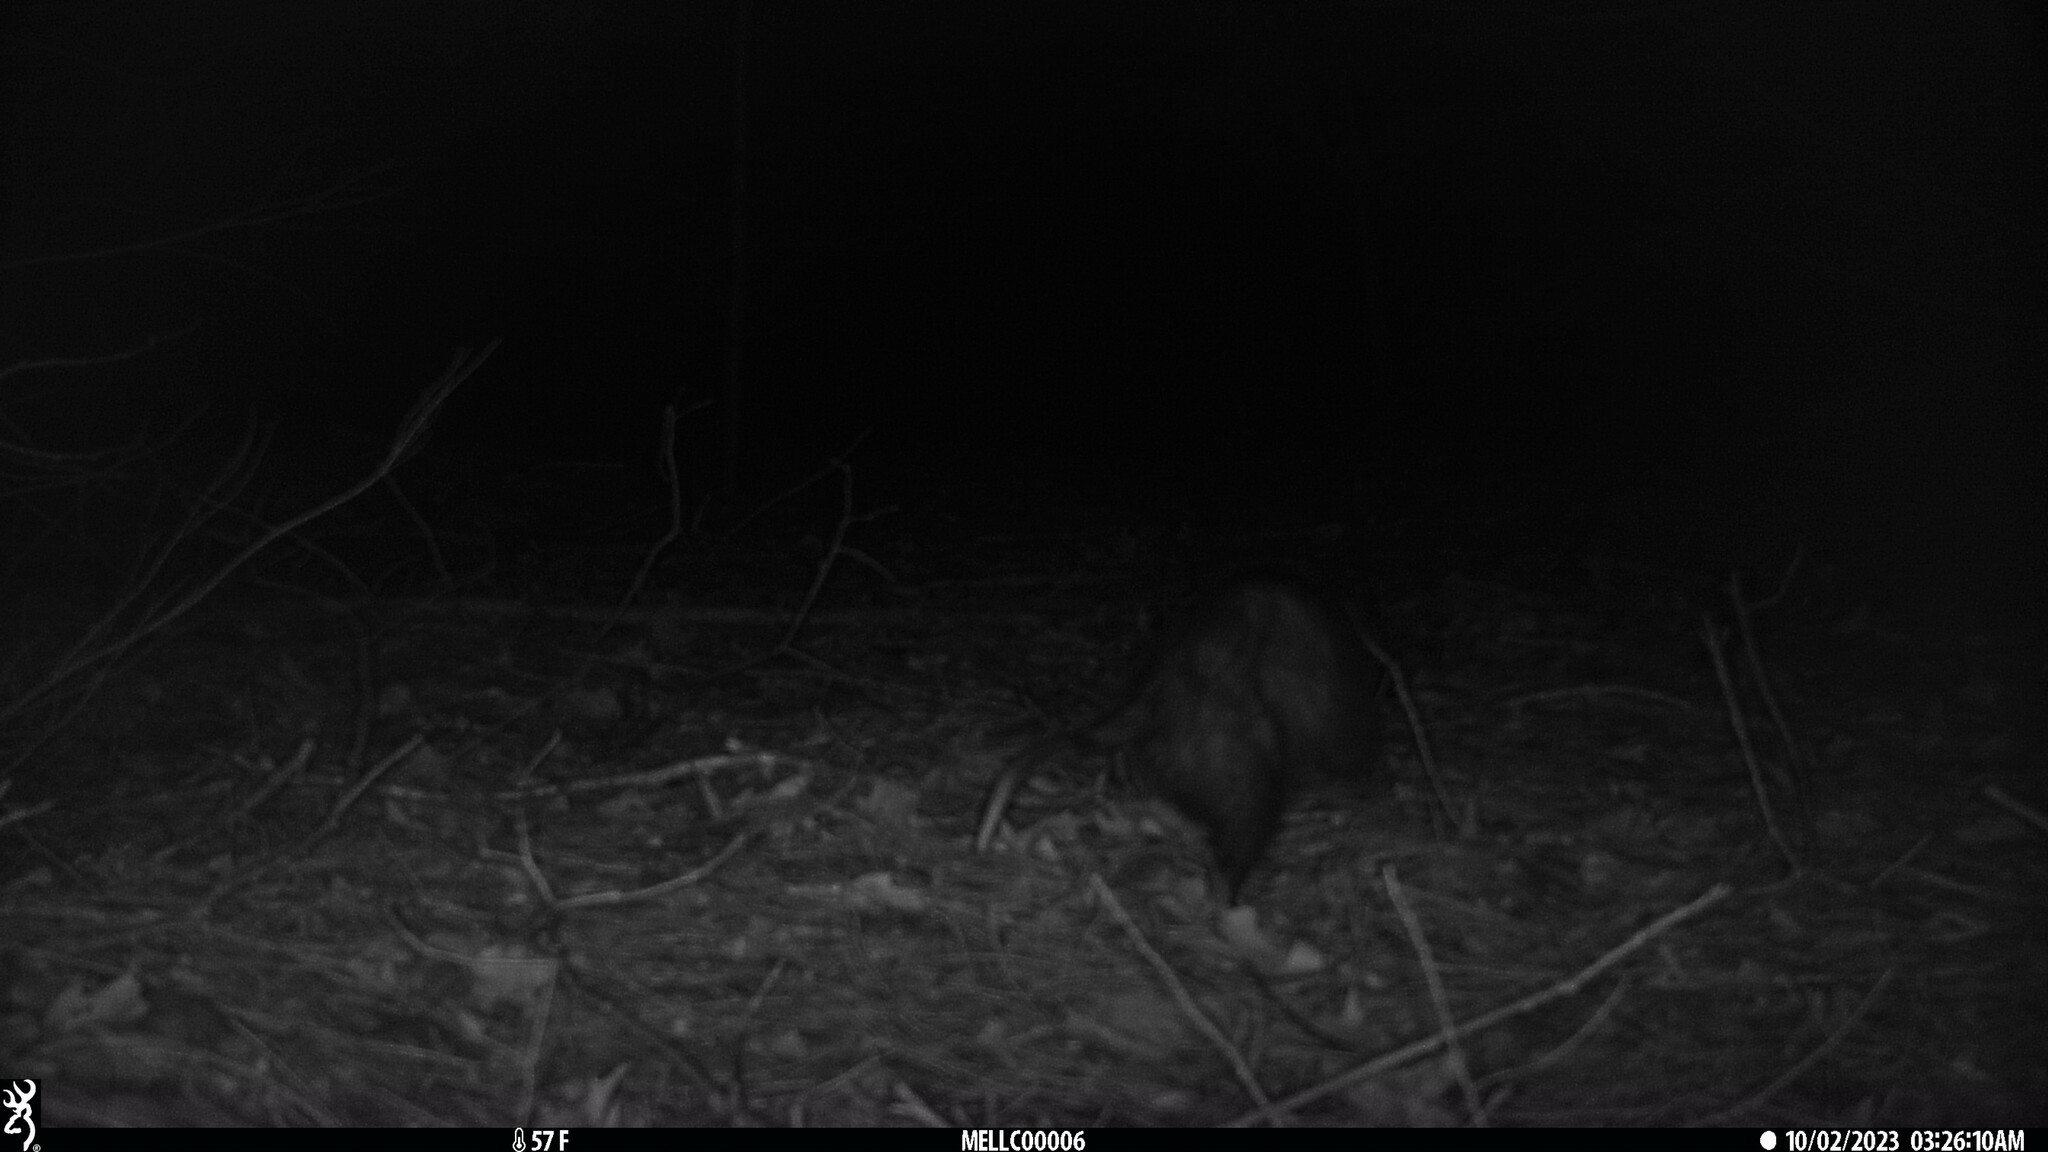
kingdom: Animalia
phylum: Chordata
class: Mammalia
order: Didelphimorphia
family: Didelphidae
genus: Didelphis
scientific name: Didelphis virginiana
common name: Virginia opossum
